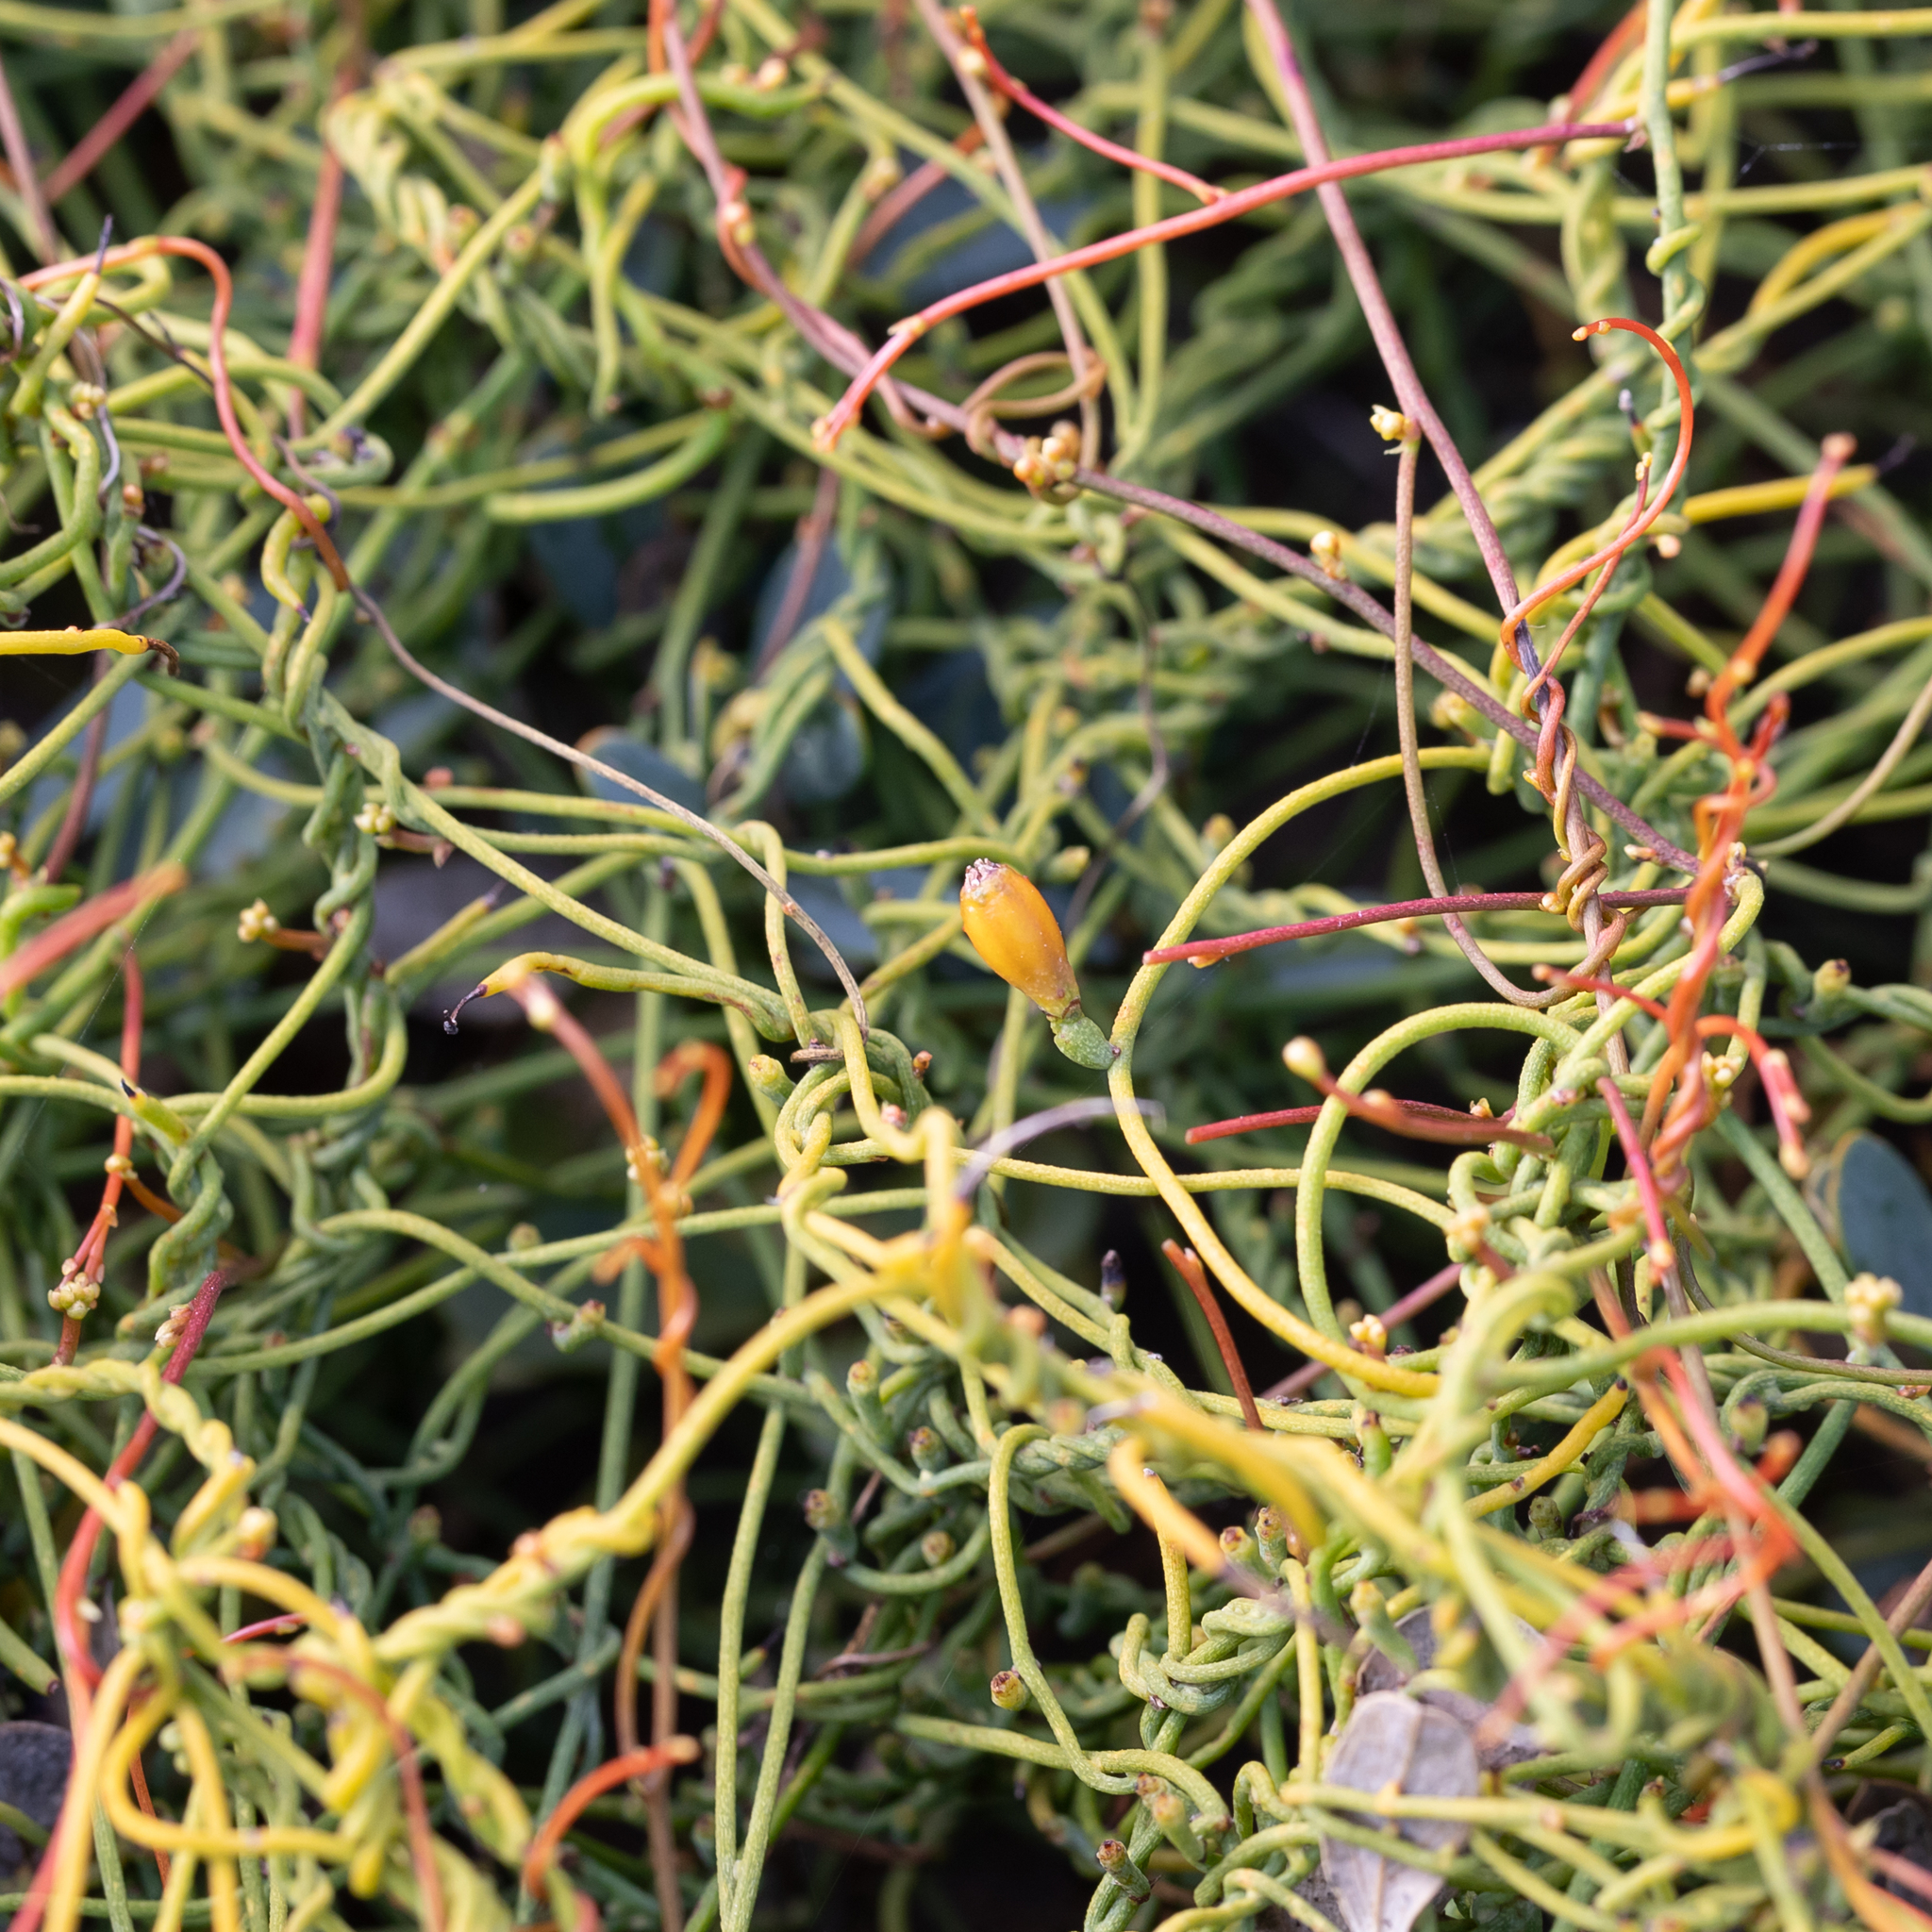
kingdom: Plantae
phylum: Tracheophyta
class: Magnoliopsida
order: Laurales
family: Lauraceae
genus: Cassytha
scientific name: Cassytha glabella
